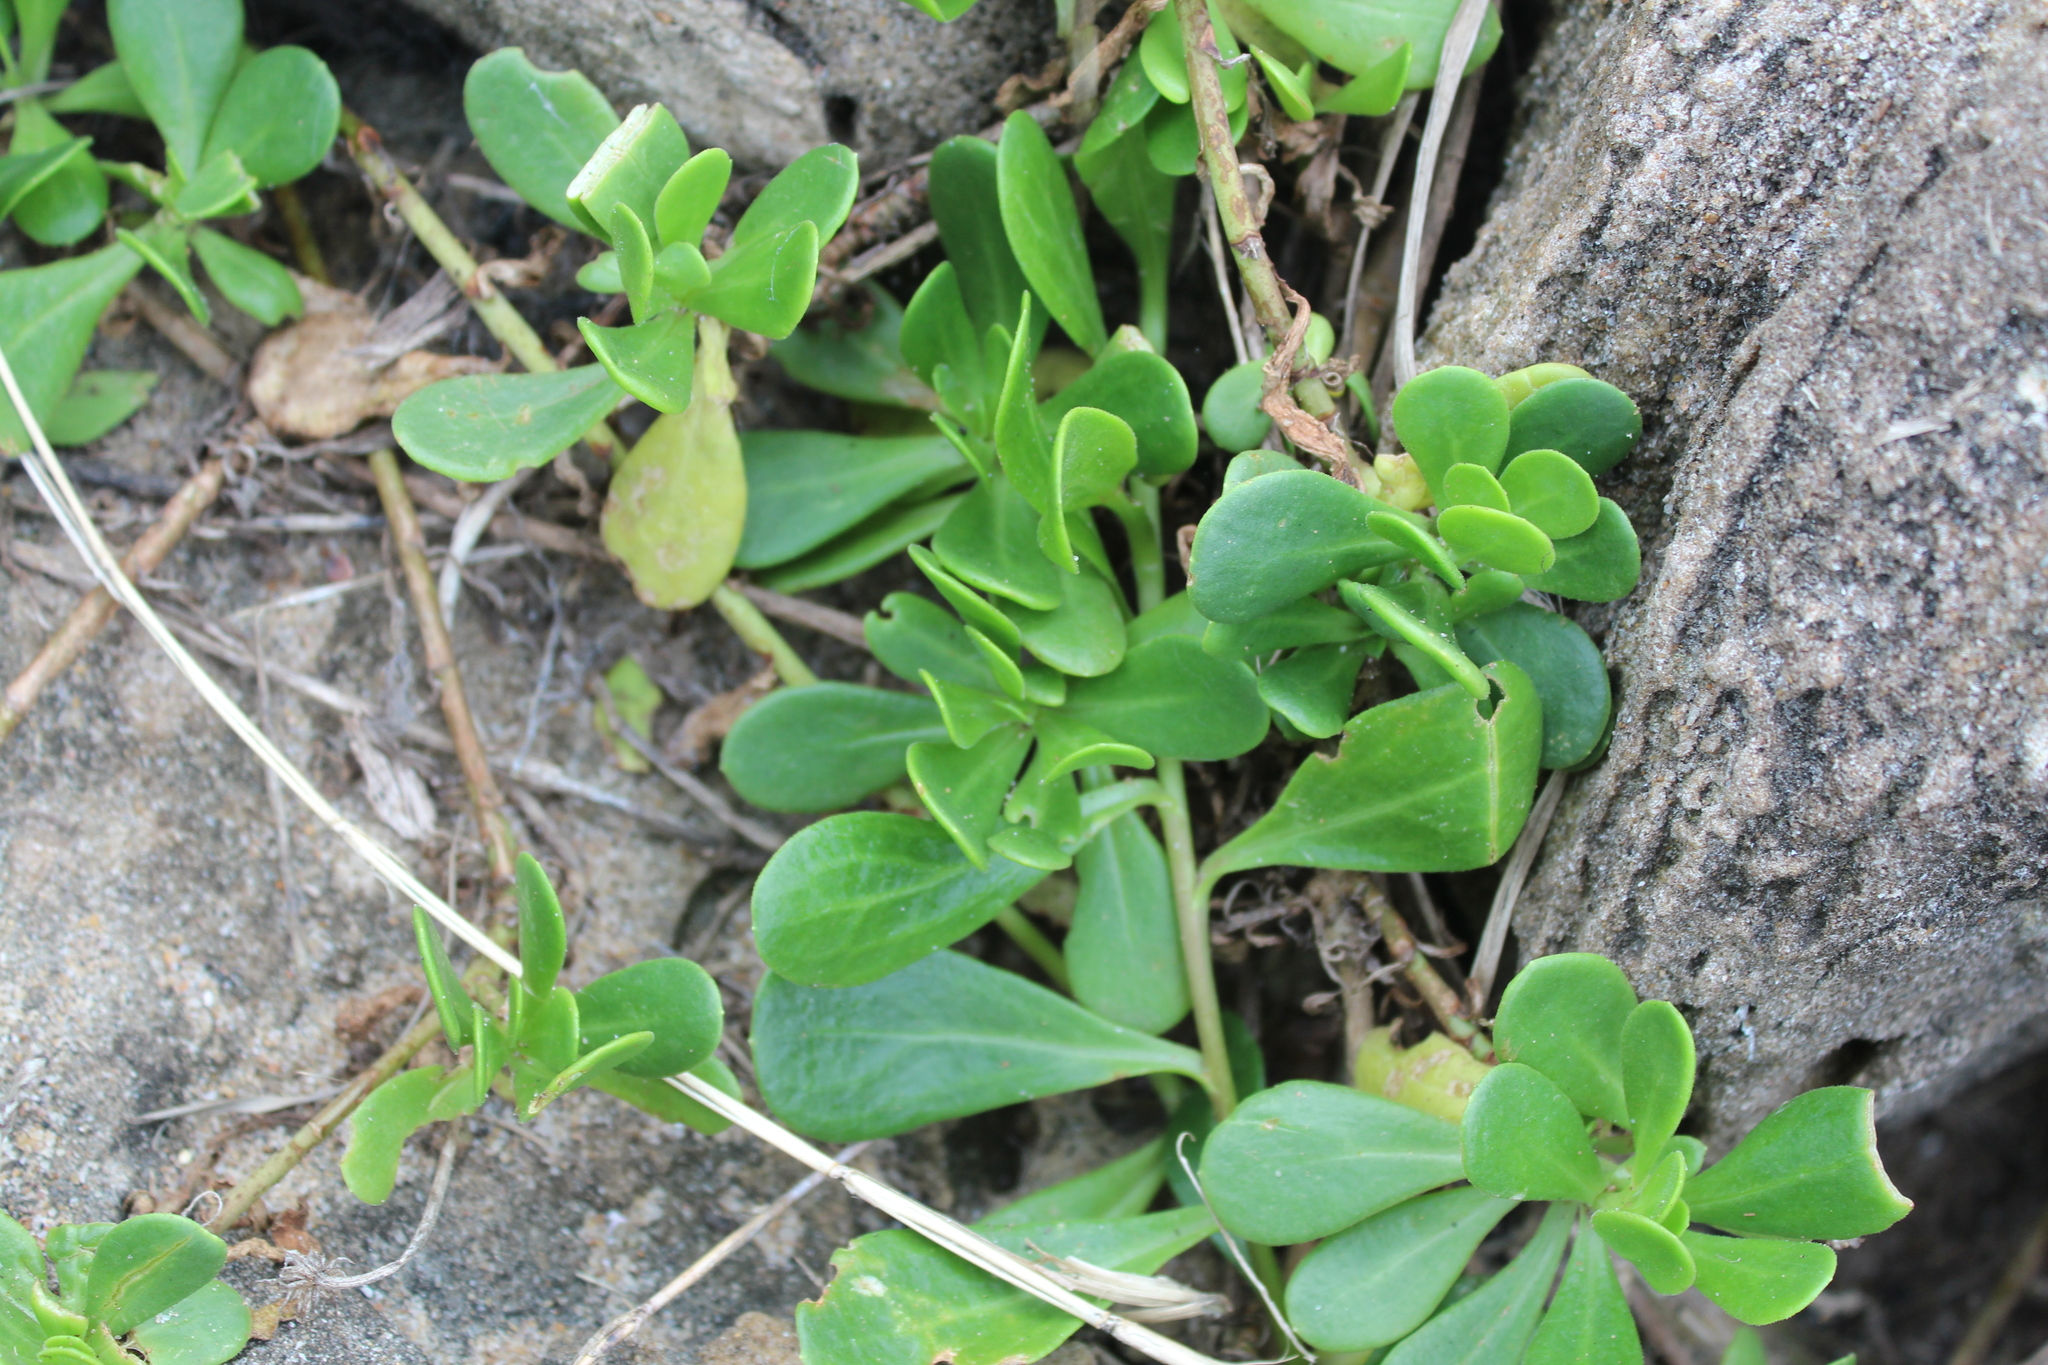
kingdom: Plantae
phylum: Tracheophyta
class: Magnoliopsida
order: Asterales
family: Asteraceae
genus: Dimorphotheca
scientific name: Dimorphotheca fruticosa
